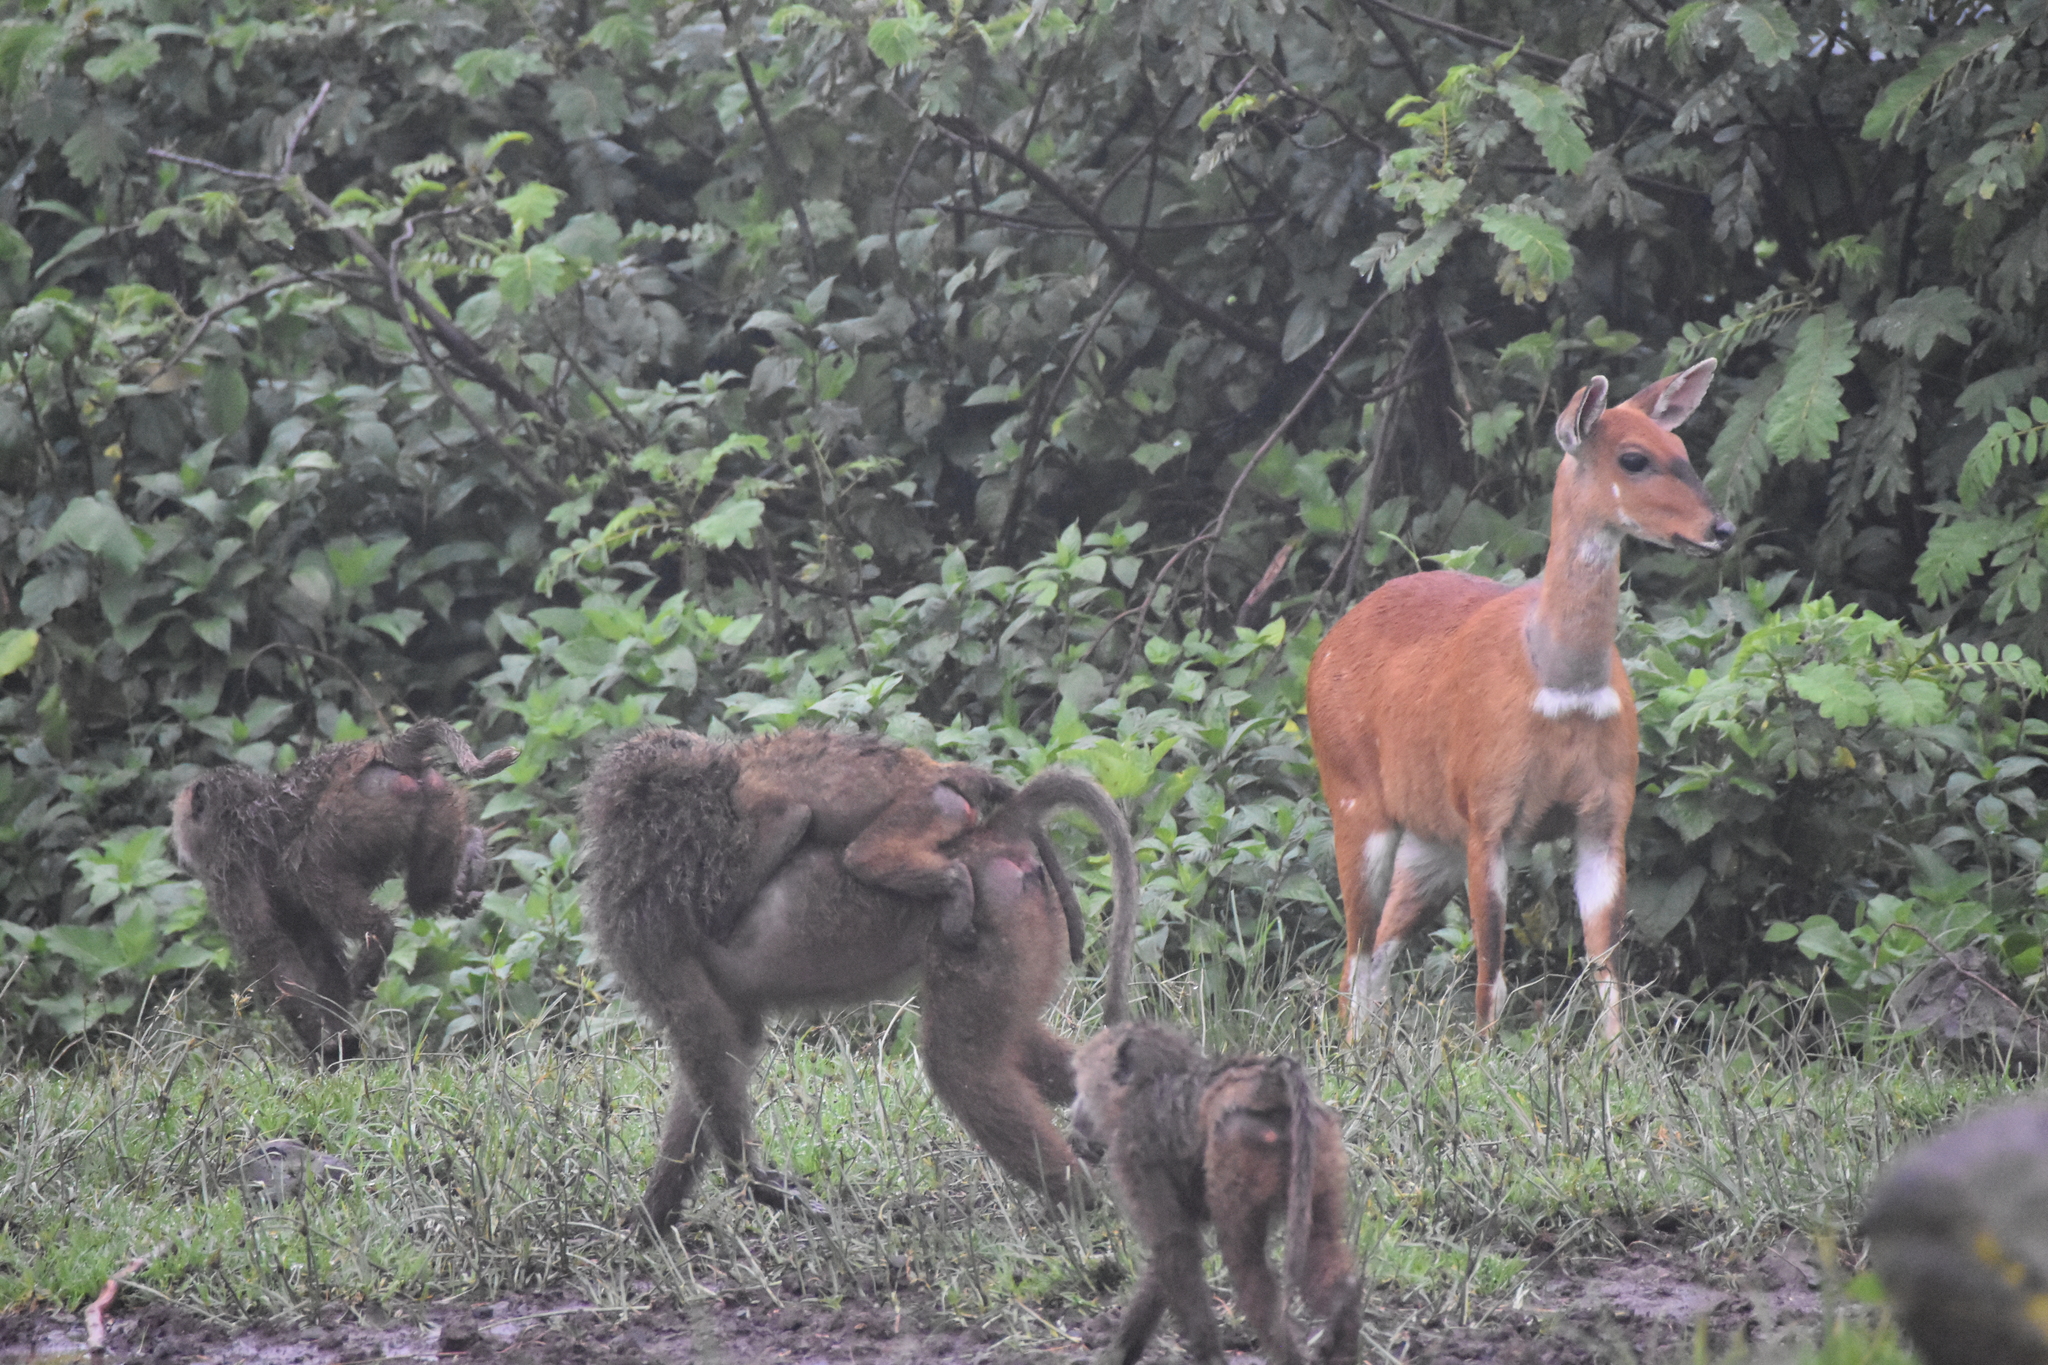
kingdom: Animalia
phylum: Chordata
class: Mammalia
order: Primates
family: Cercopithecidae
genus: Papio
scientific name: Papio anubis
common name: Olive baboon
